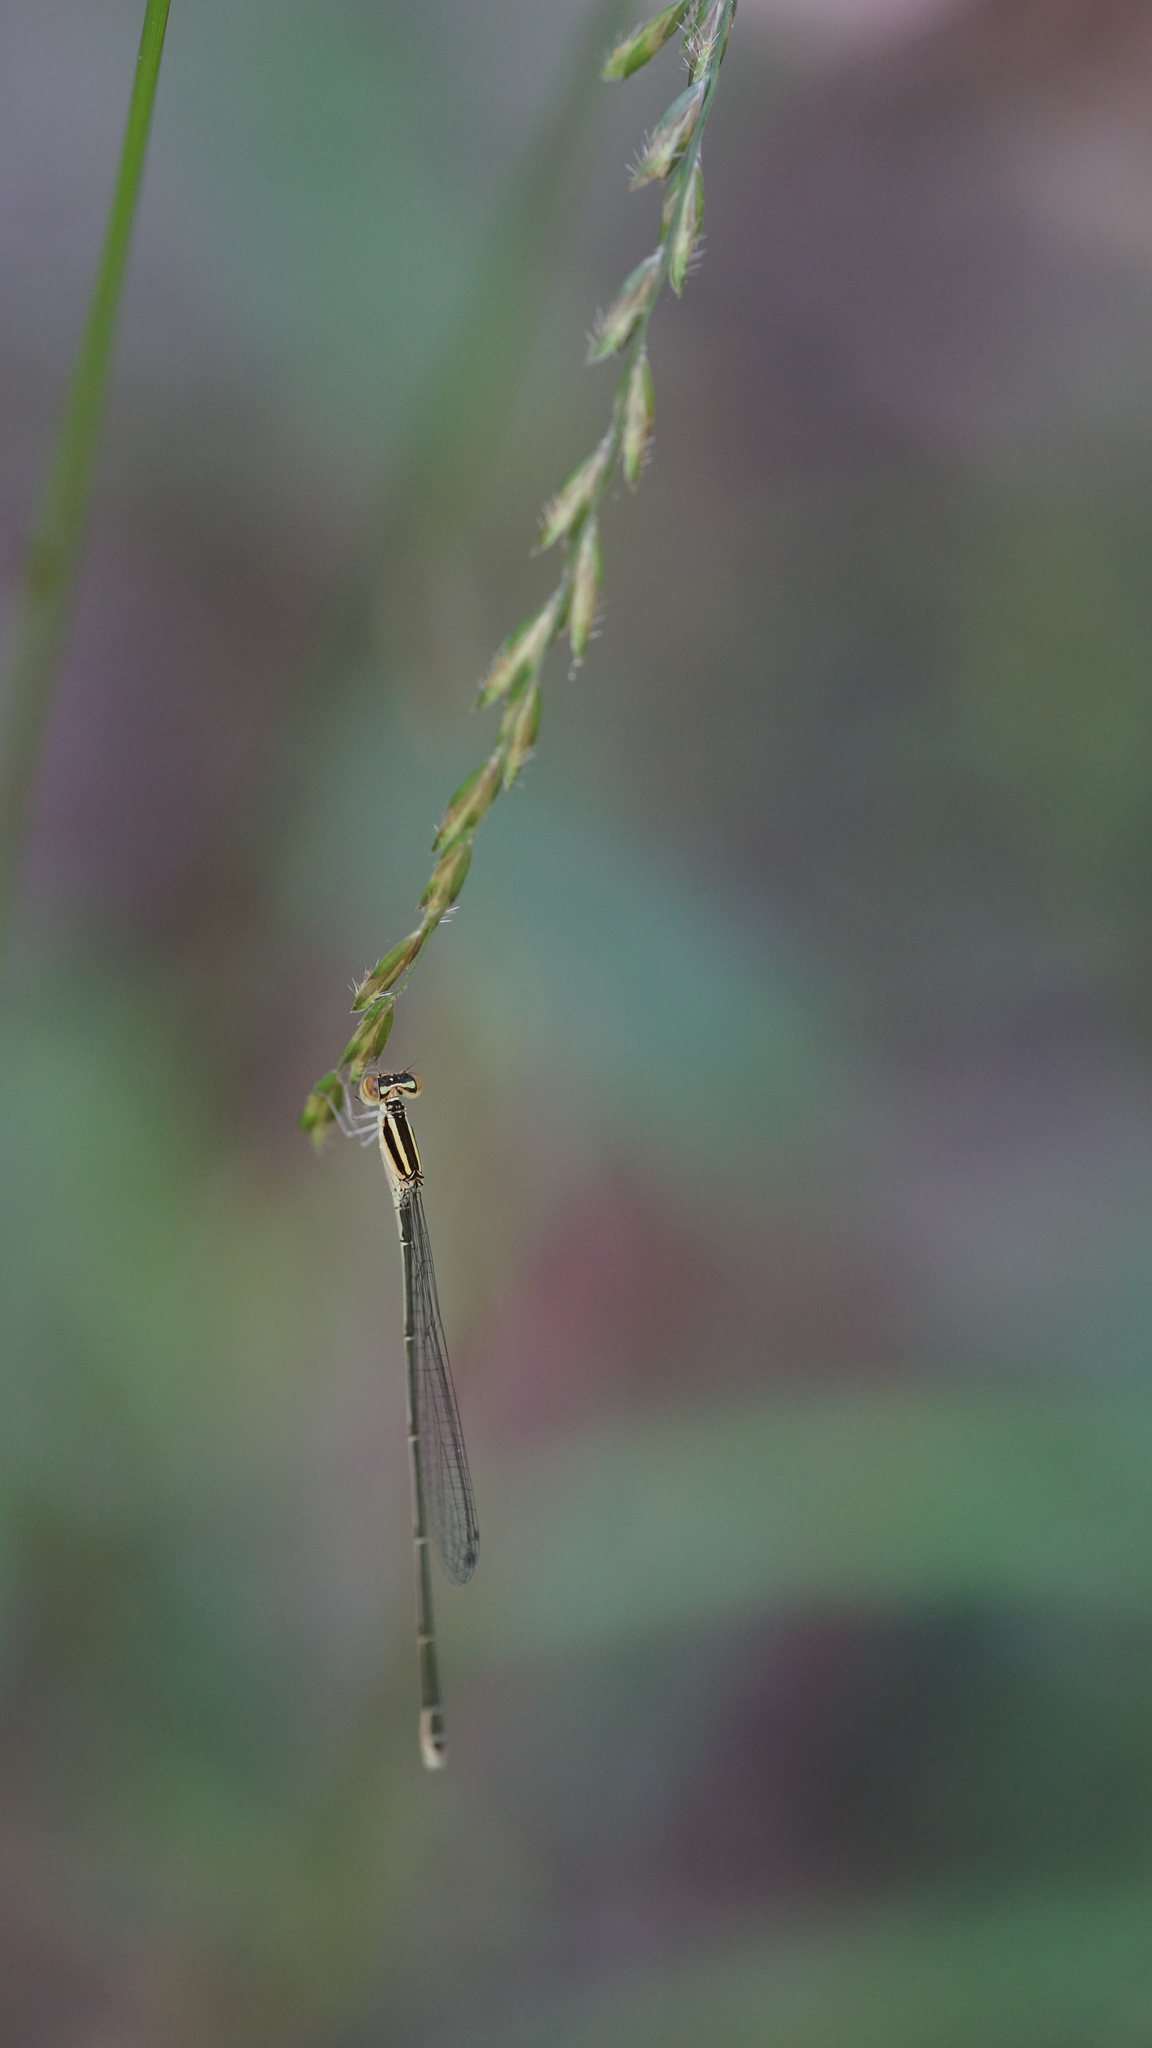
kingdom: Animalia
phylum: Arthropoda
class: Insecta
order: Odonata
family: Coenagrionidae
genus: Aciagrion
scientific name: Aciagrion borneense
